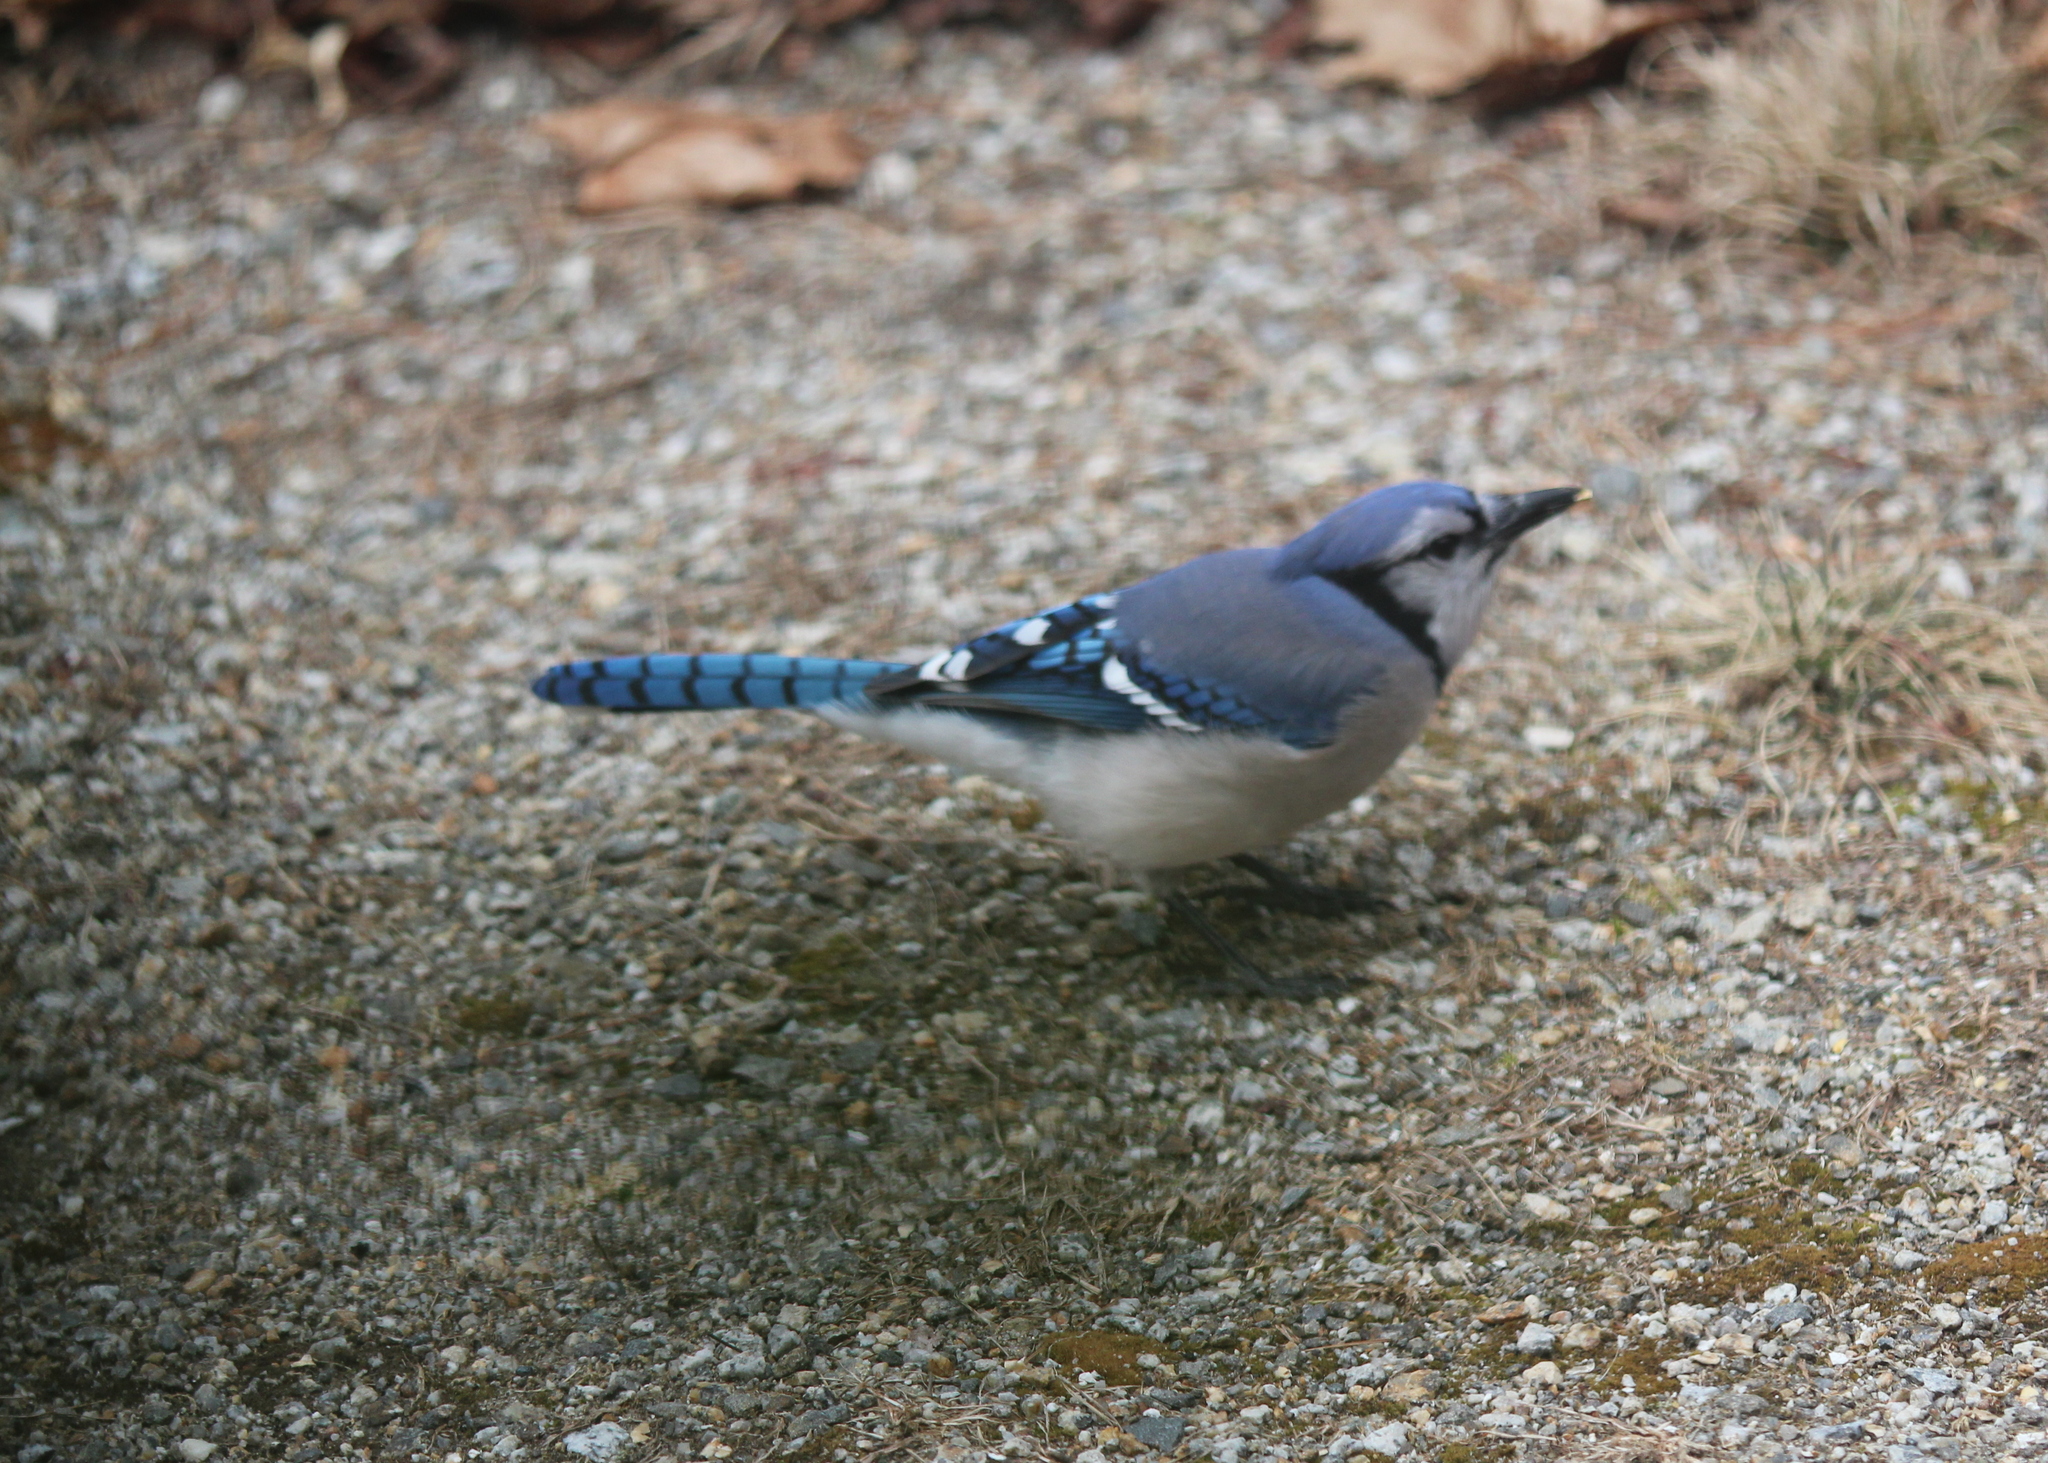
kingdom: Animalia
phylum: Chordata
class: Aves
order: Passeriformes
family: Corvidae
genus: Cyanocitta
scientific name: Cyanocitta cristata
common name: Blue jay
